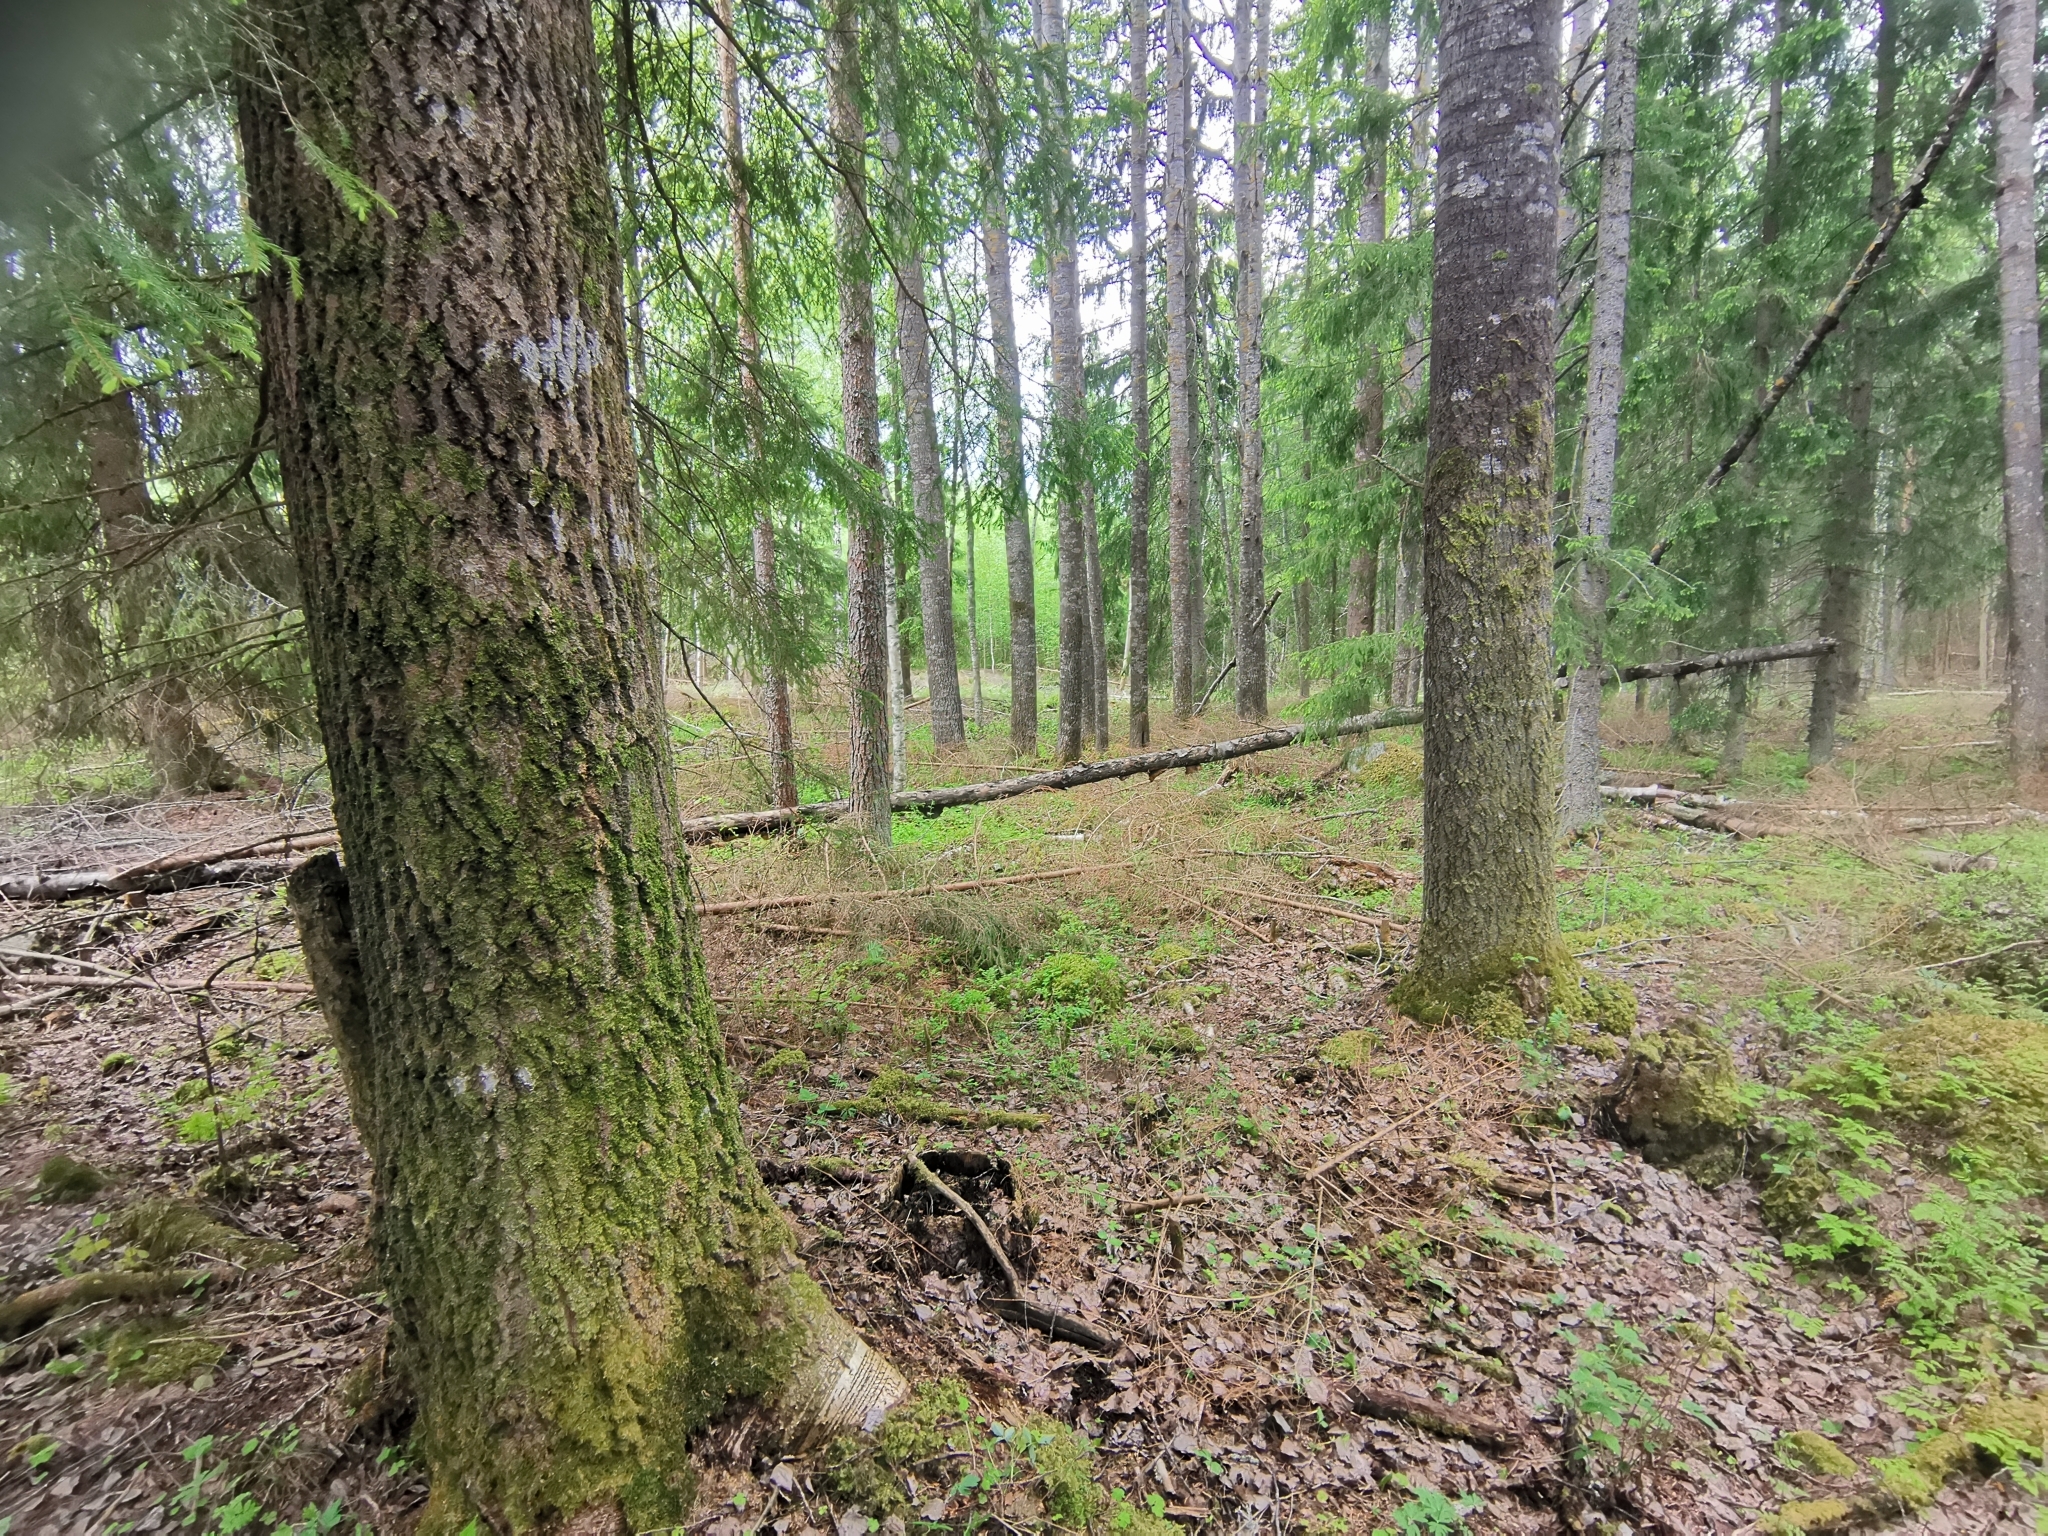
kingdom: Animalia
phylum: Chordata
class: Mammalia
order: Rodentia
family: Sciuridae
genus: Pteromys
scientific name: Pteromys volans
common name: Siberian flying squirrel
